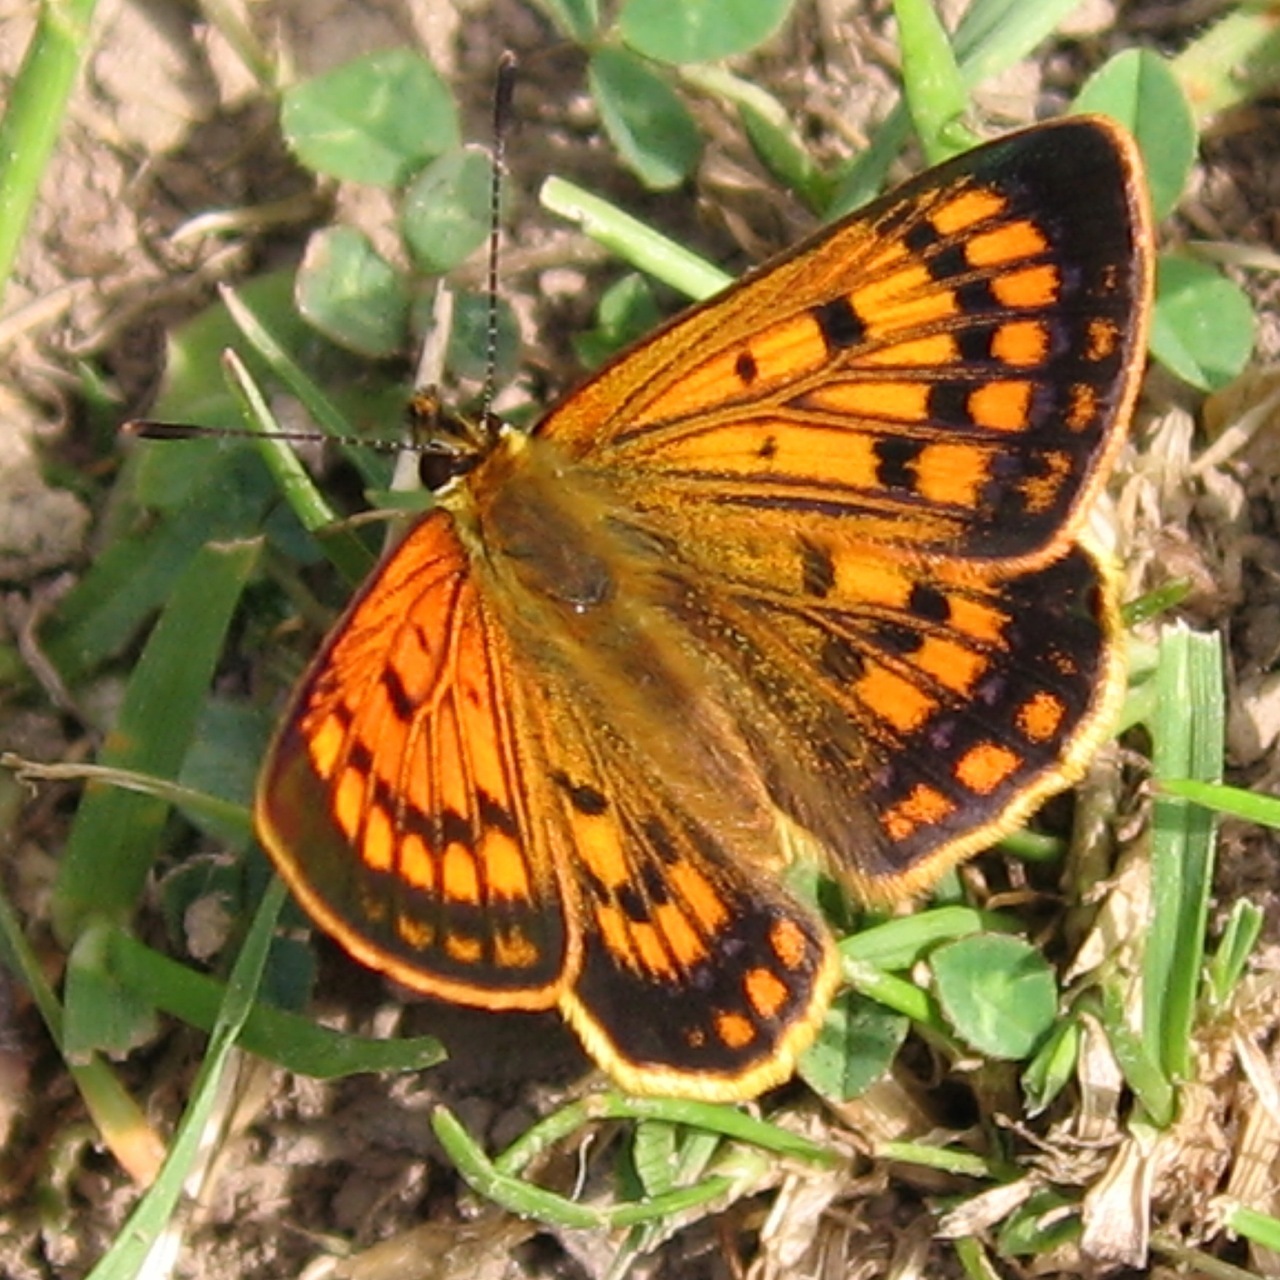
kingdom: Animalia
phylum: Arthropoda
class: Insecta
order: Lepidoptera
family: Lycaenidae
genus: Lycaena
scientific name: Lycaena salustius
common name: North island coastal copper
